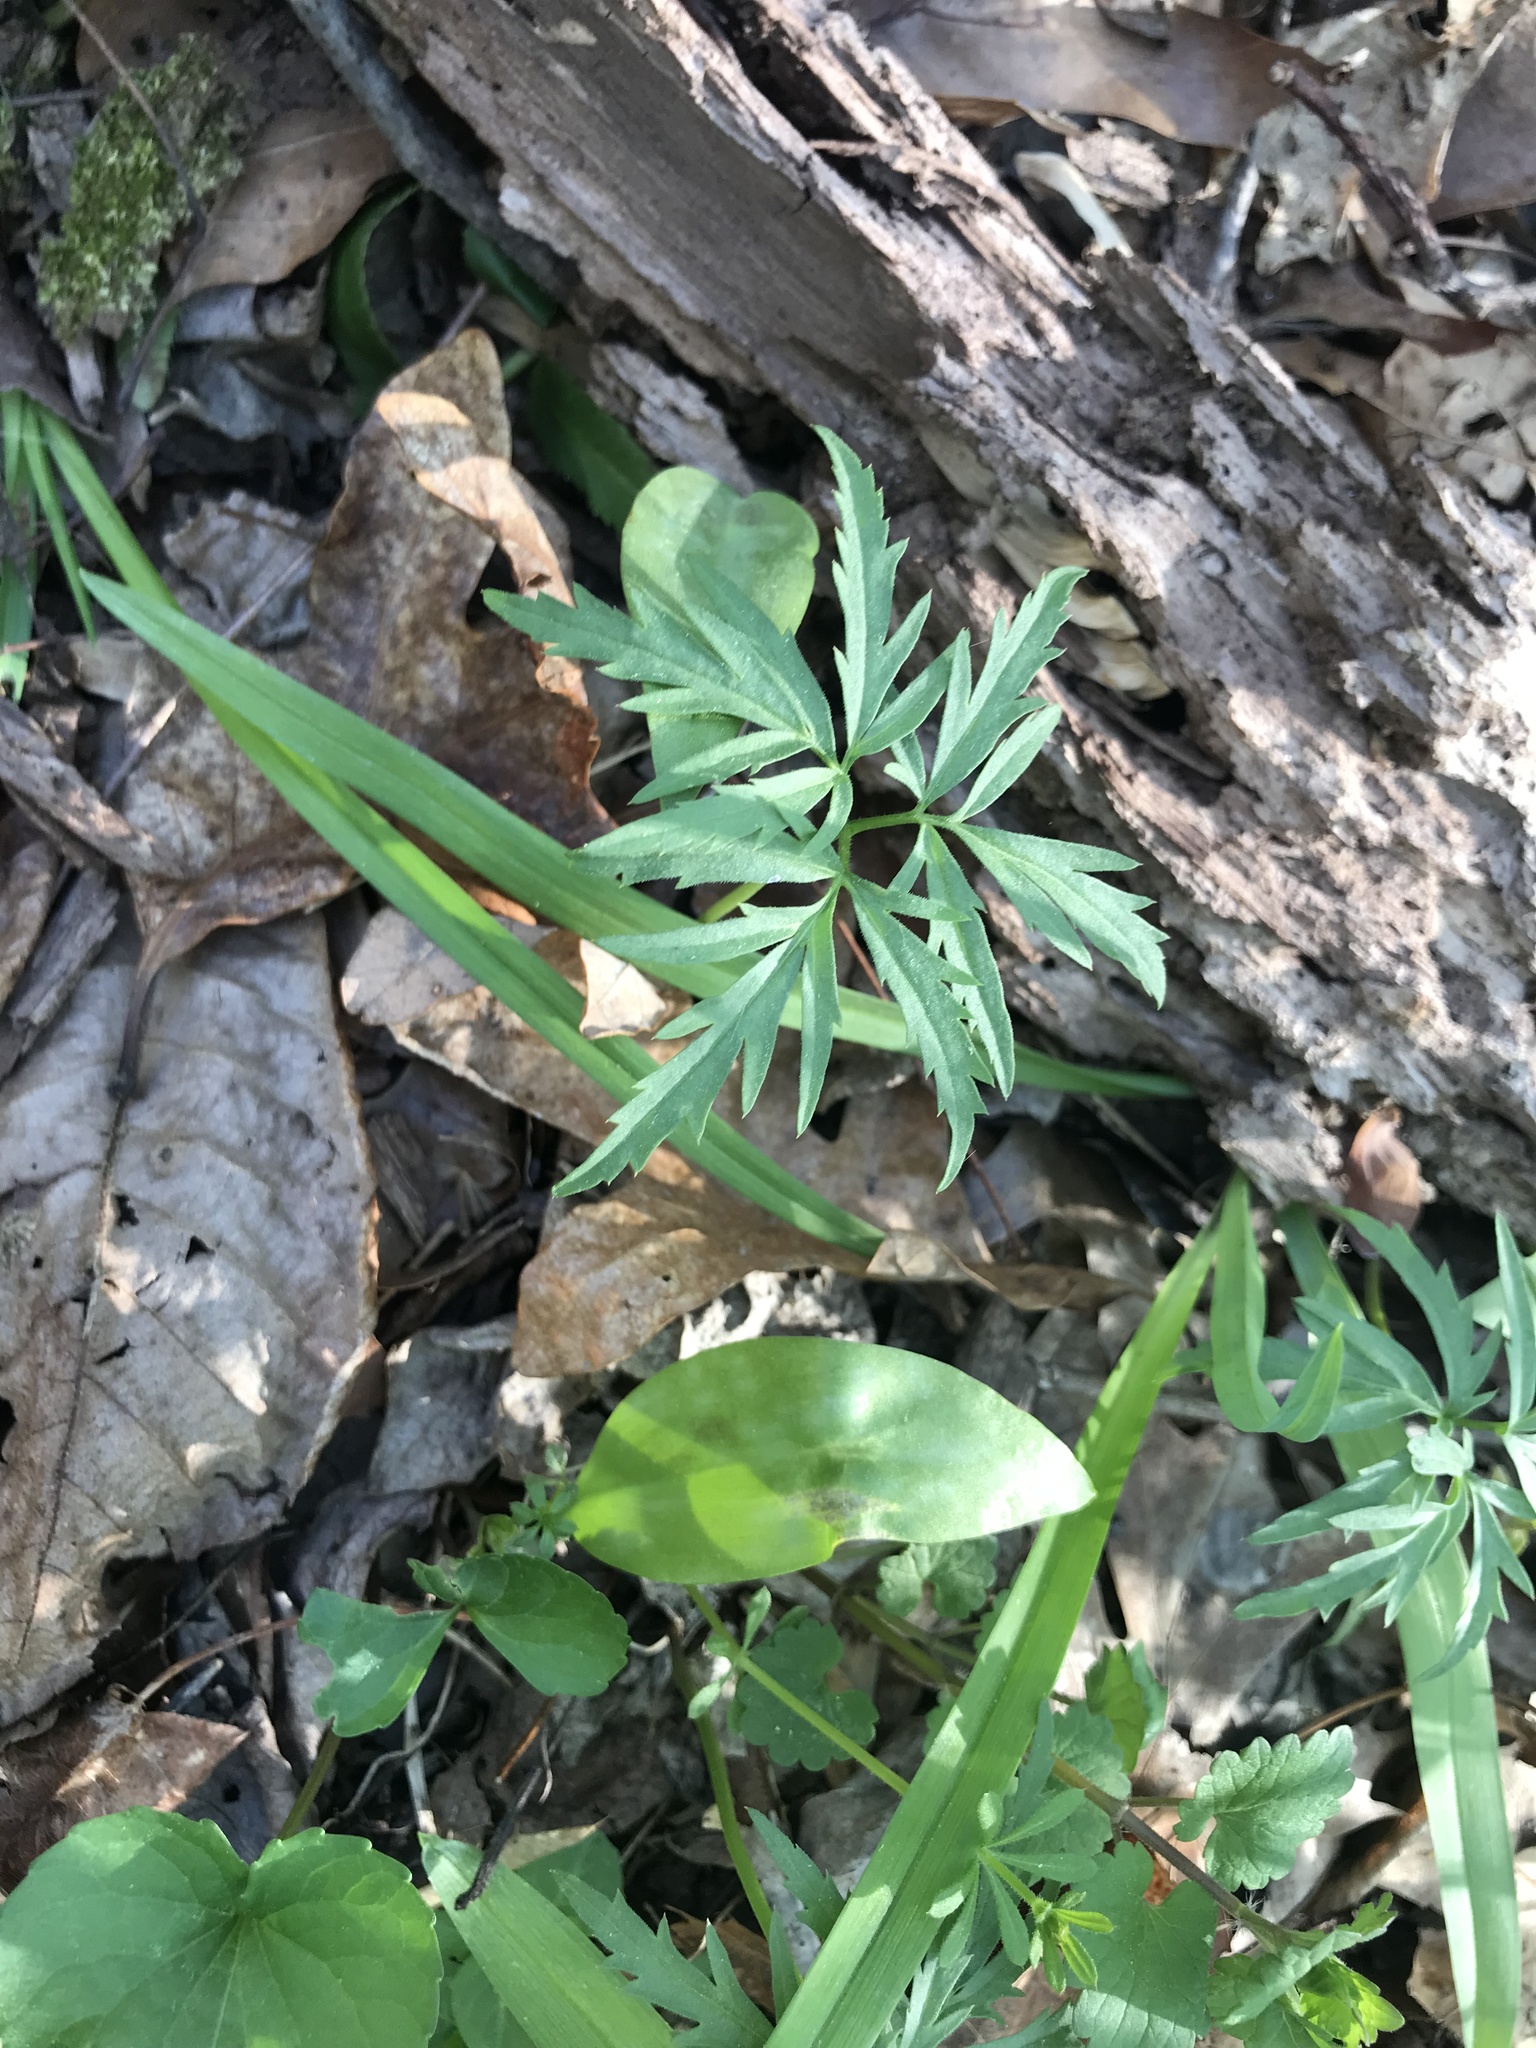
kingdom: Plantae
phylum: Tracheophyta
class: Magnoliopsida
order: Brassicales
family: Brassicaceae
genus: Cardamine
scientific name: Cardamine concatenata
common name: Cut-leaf toothcup
